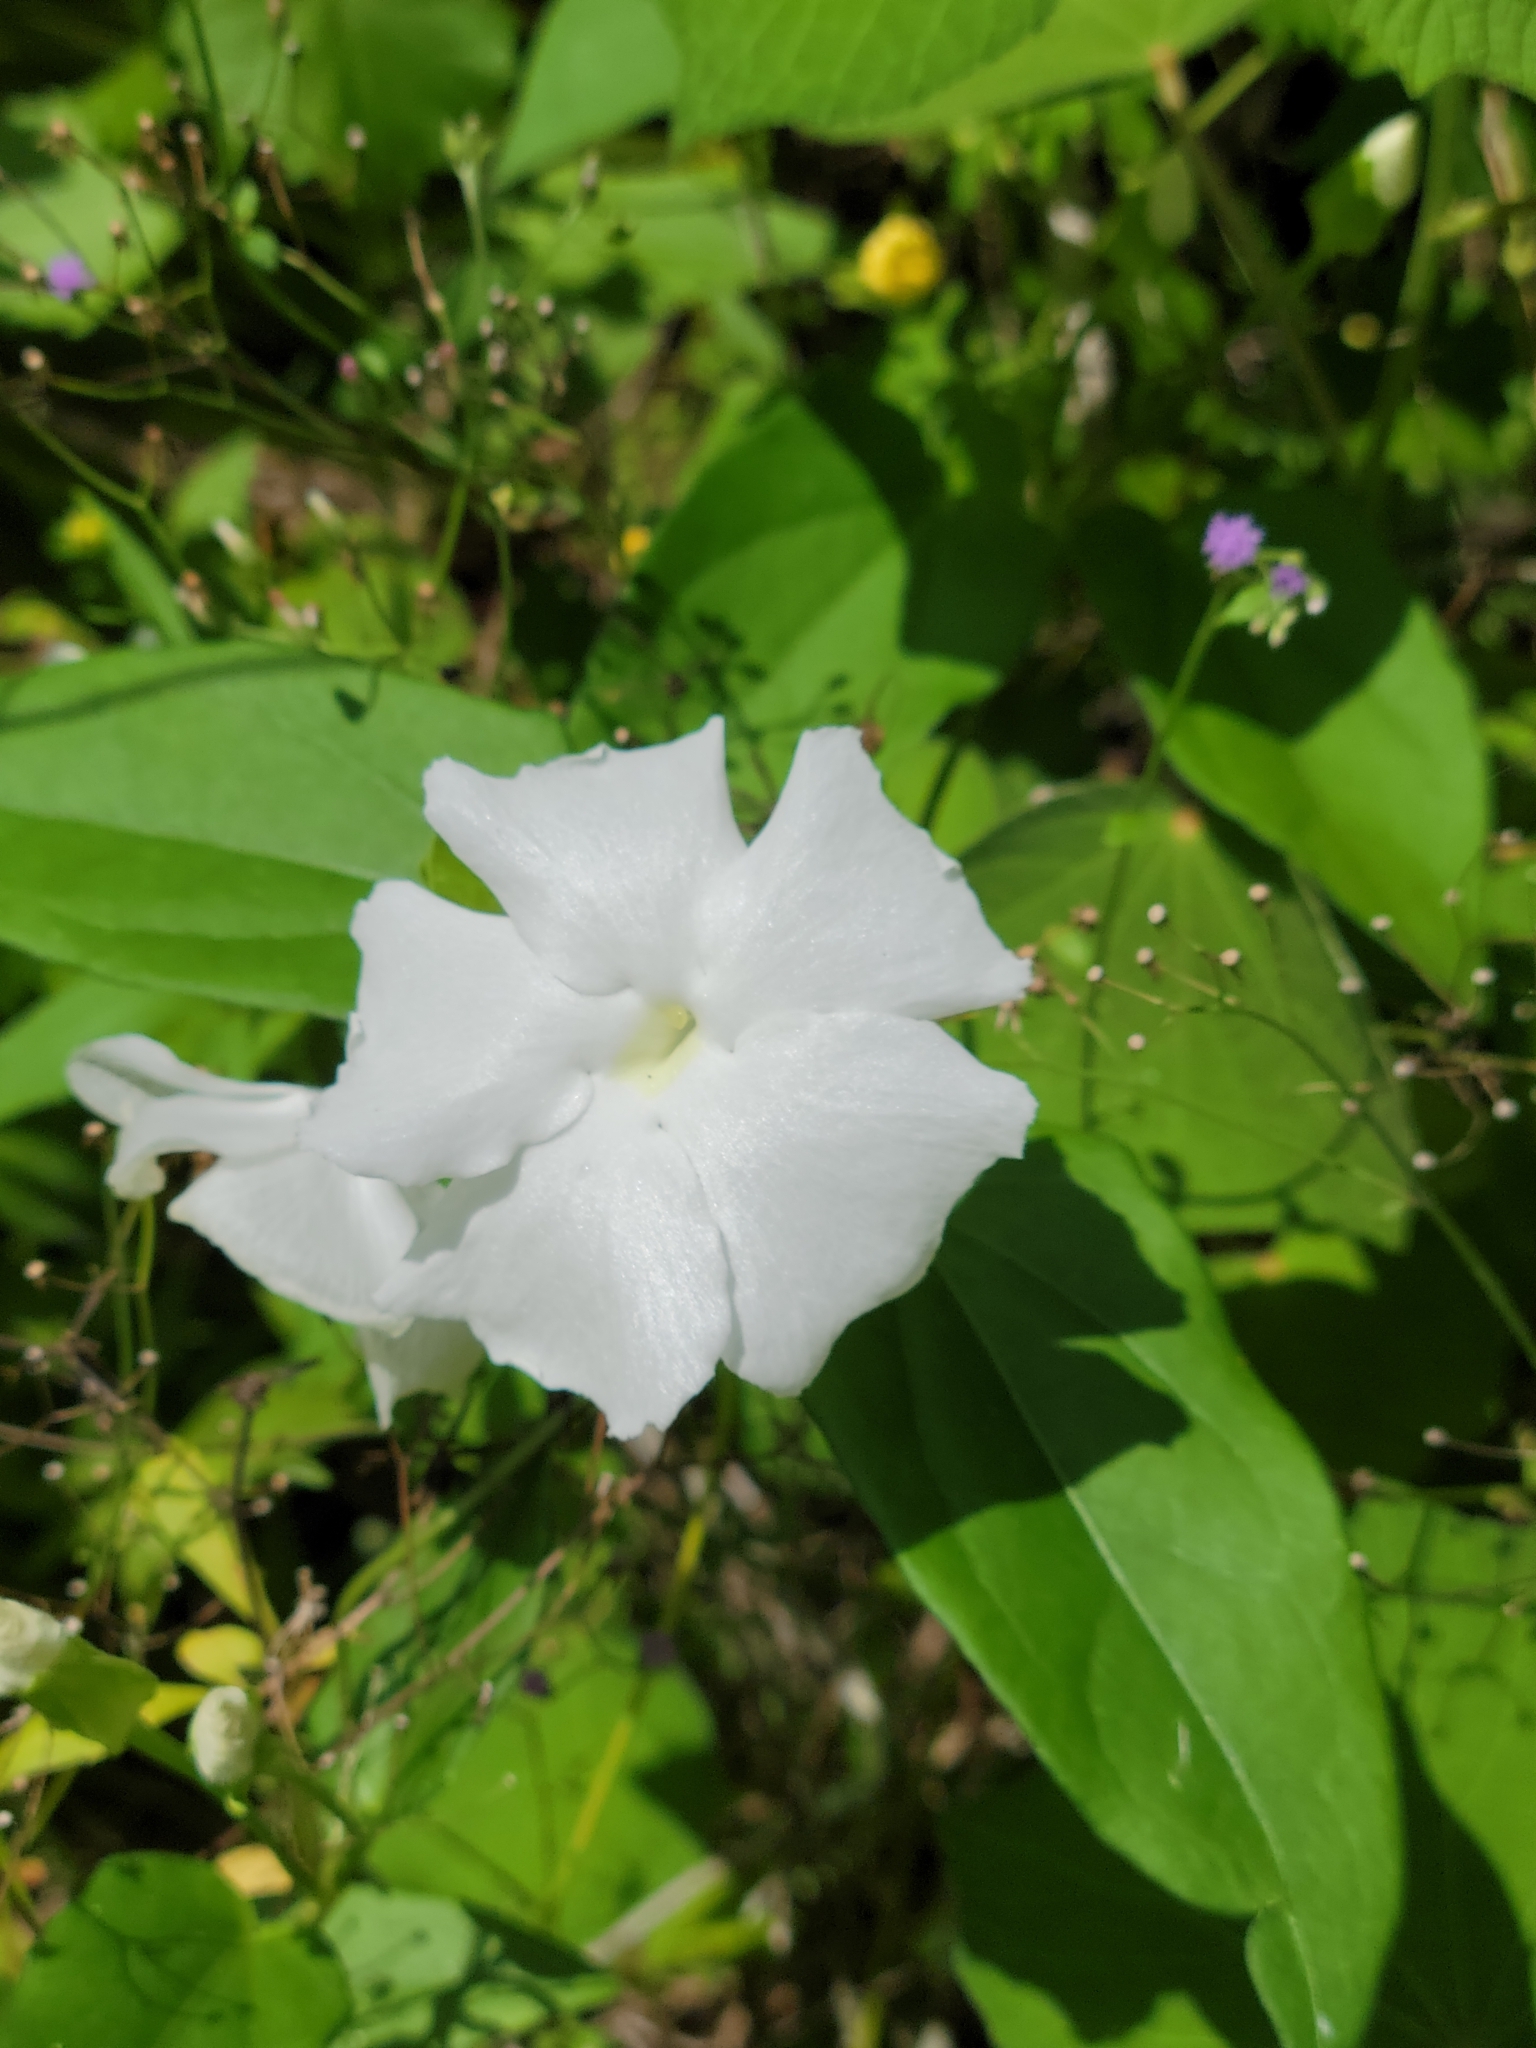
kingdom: Plantae
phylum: Tracheophyta
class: Magnoliopsida
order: Lamiales
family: Acanthaceae
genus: Thunbergia
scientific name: Thunbergia fragrans
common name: Whitelady
